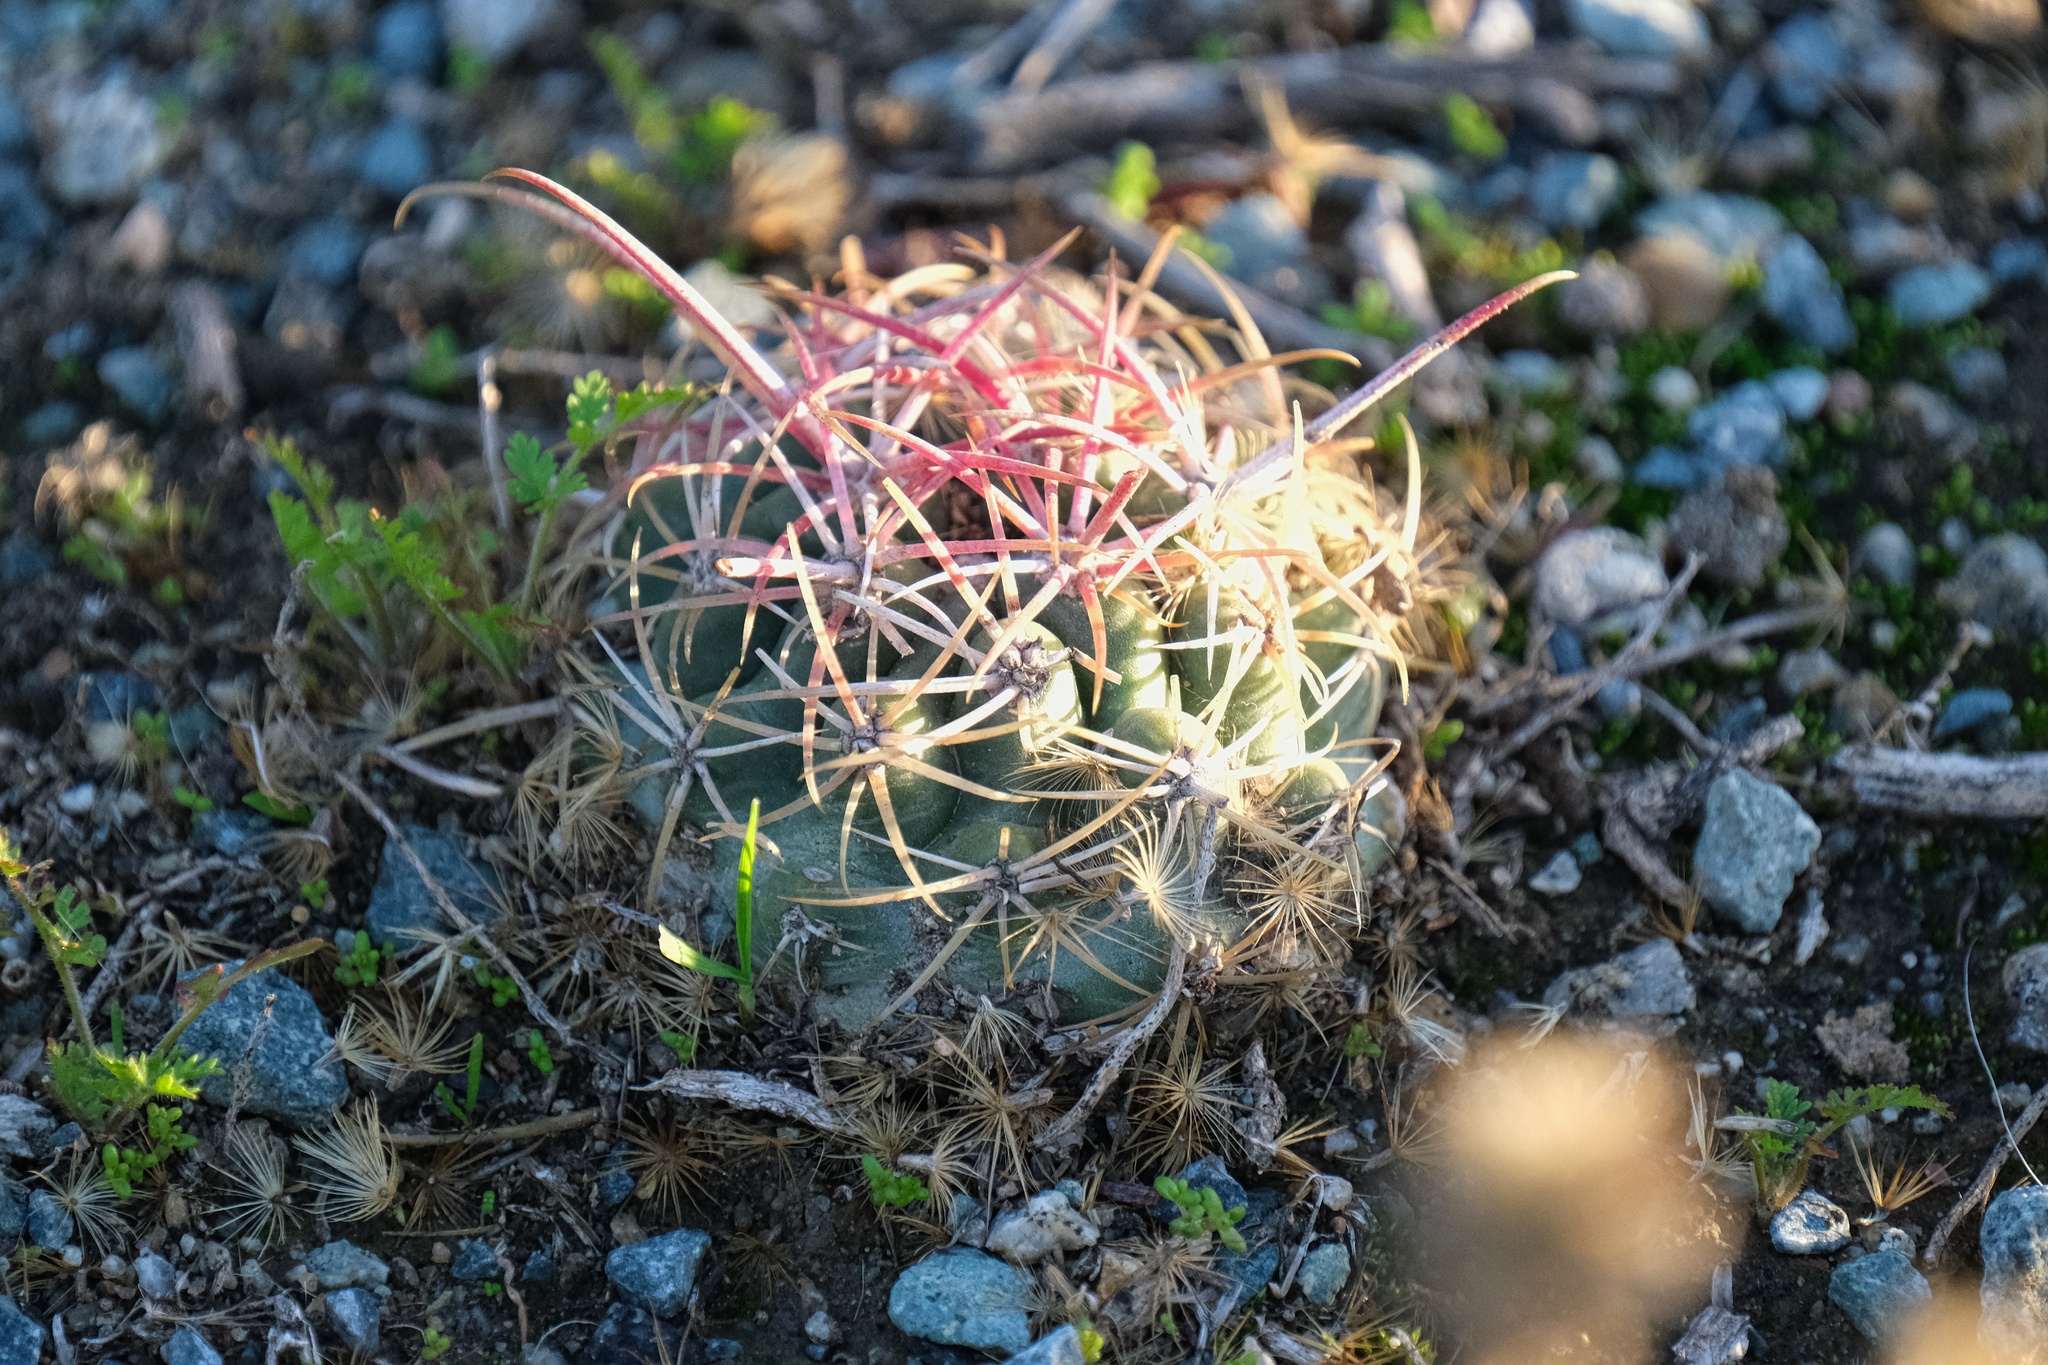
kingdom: Plantae
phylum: Tracheophyta
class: Magnoliopsida
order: Caryophyllales
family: Cactaceae
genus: Ferocactus
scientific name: Ferocactus viridescens
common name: San diego barrel cactus
